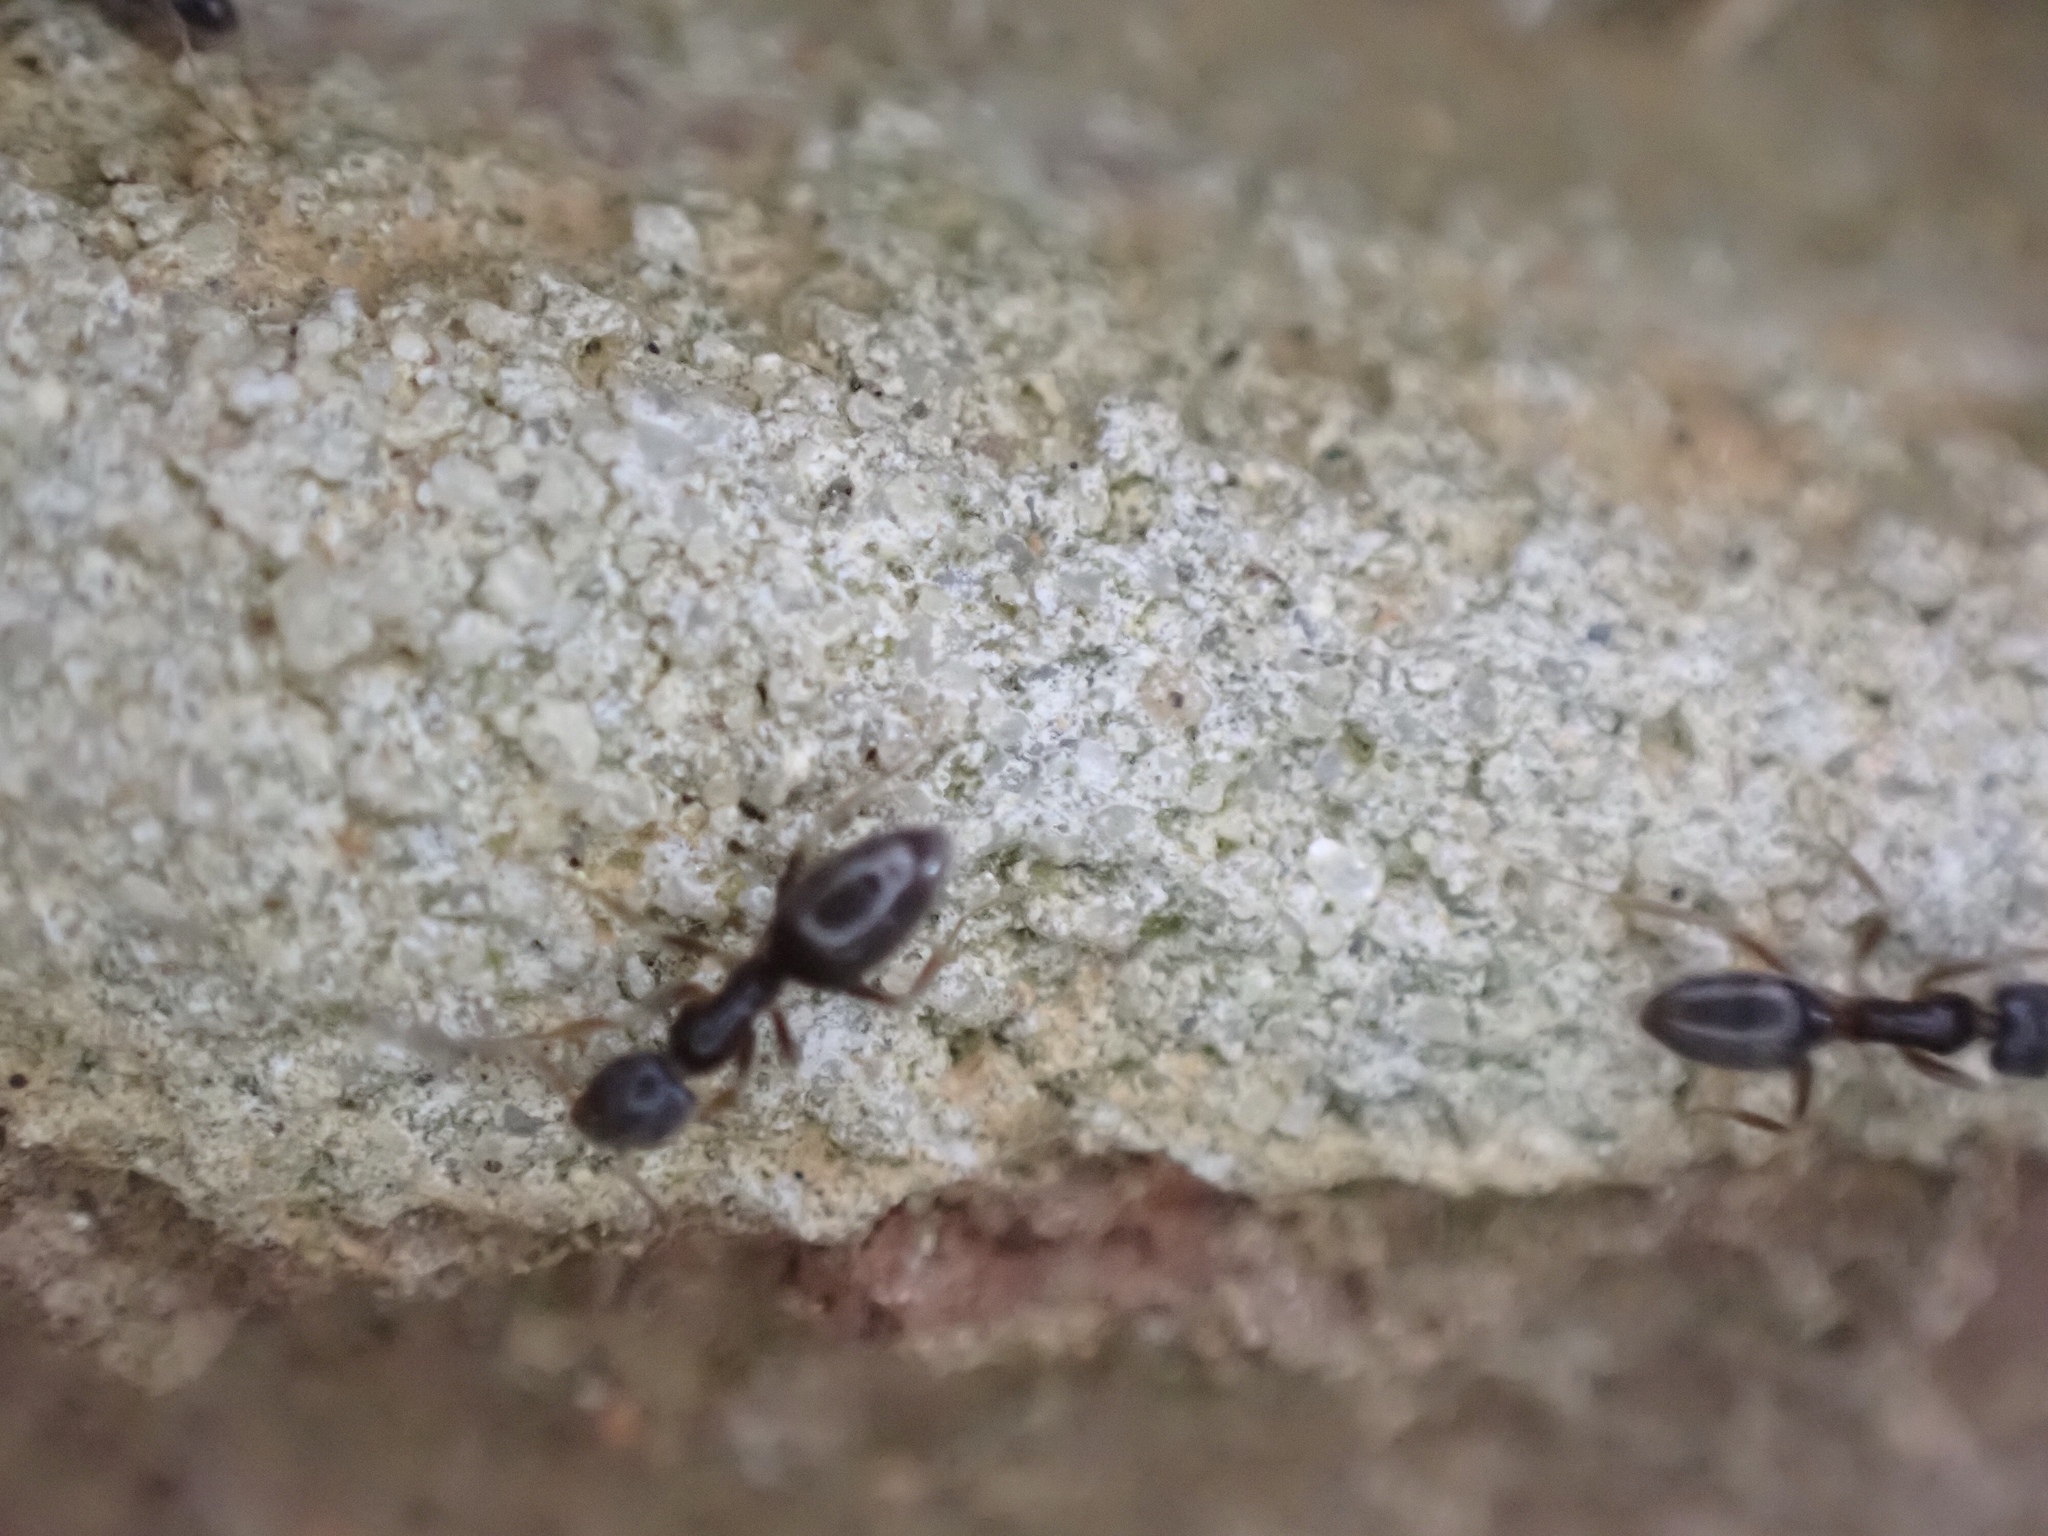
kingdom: Animalia
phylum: Arthropoda
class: Insecta
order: Hymenoptera
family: Formicidae
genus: Tapinoma
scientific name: Tapinoma sessile
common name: Odorous house ant
